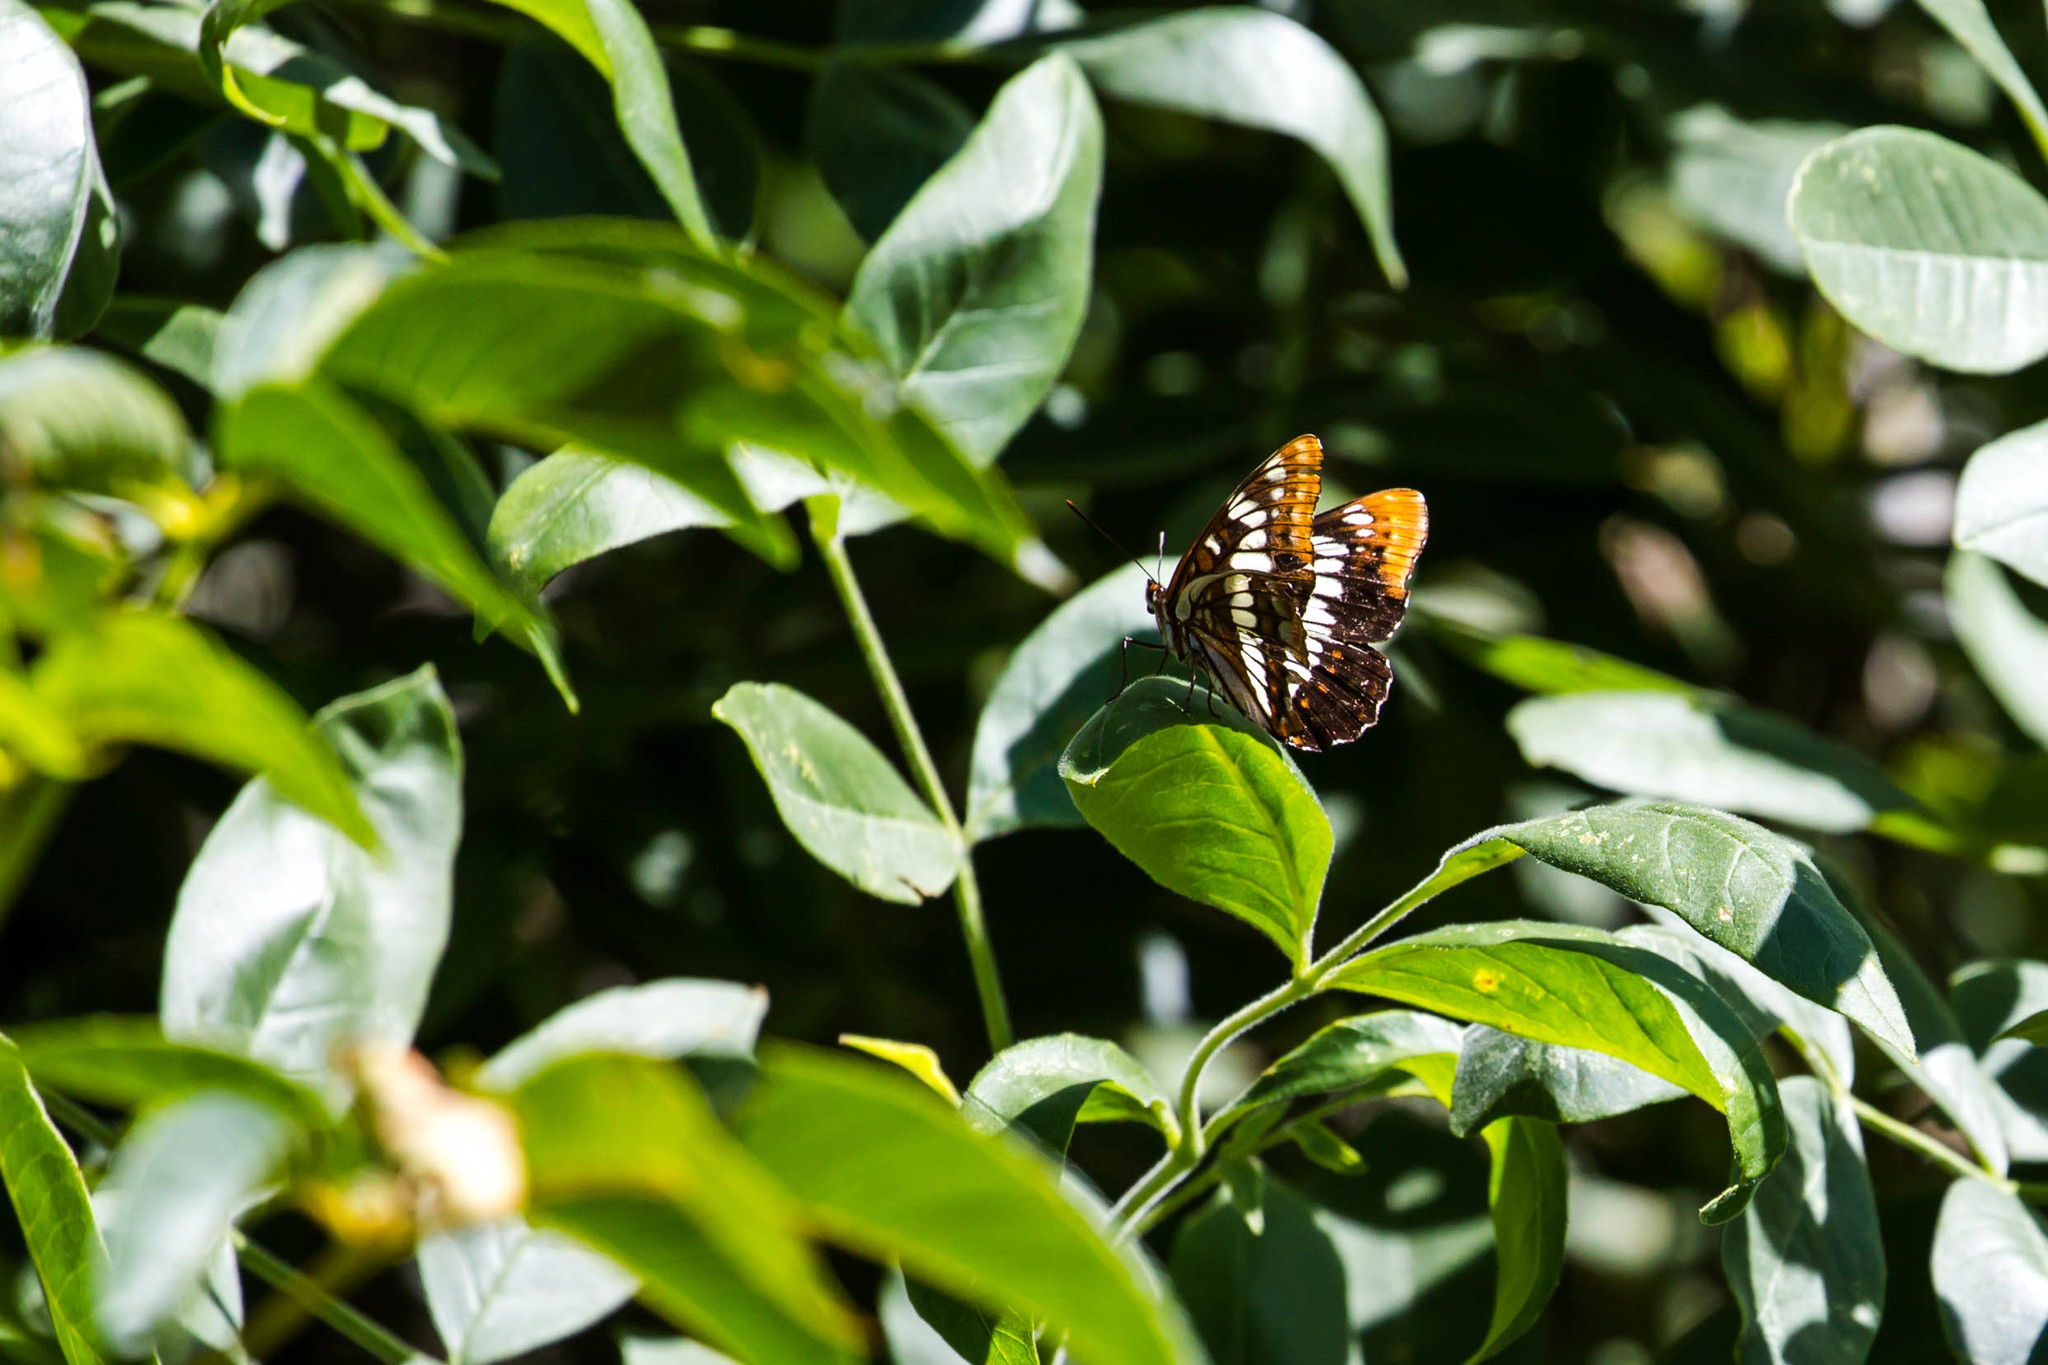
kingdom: Animalia
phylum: Arthropoda
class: Insecta
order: Lepidoptera
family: Nymphalidae
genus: Limenitis
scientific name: Limenitis lorquini
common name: Lorquin's admiral
